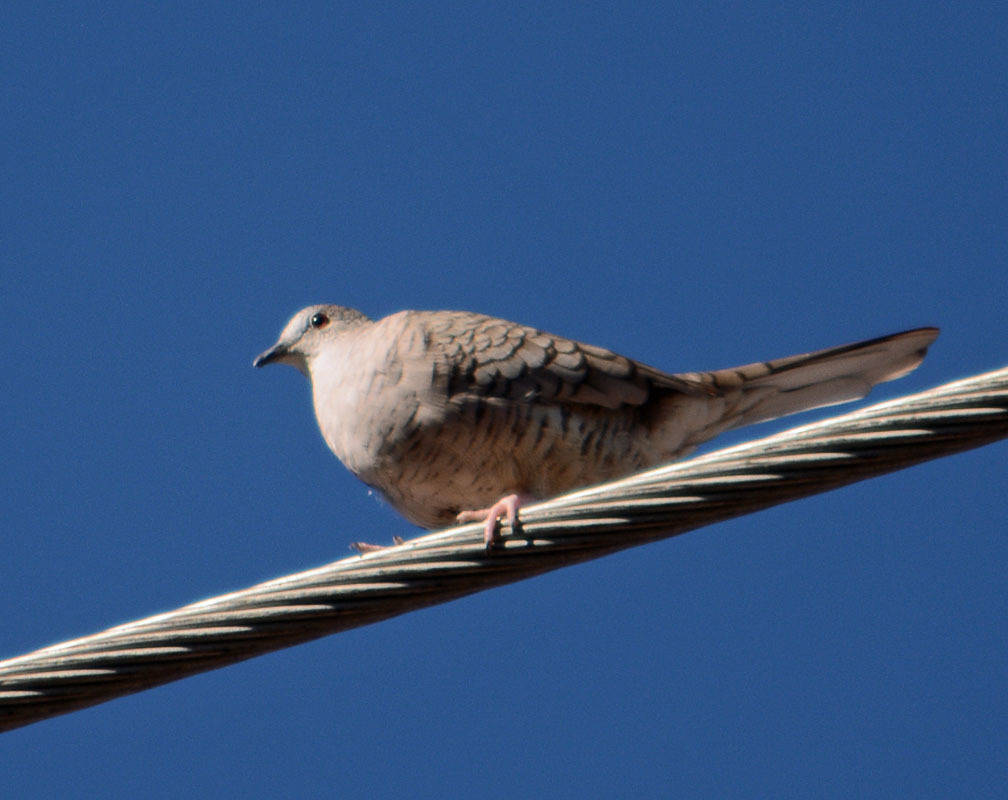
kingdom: Animalia
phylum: Chordata
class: Aves
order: Columbiformes
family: Columbidae
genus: Columbina
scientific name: Columbina inca
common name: Inca dove
